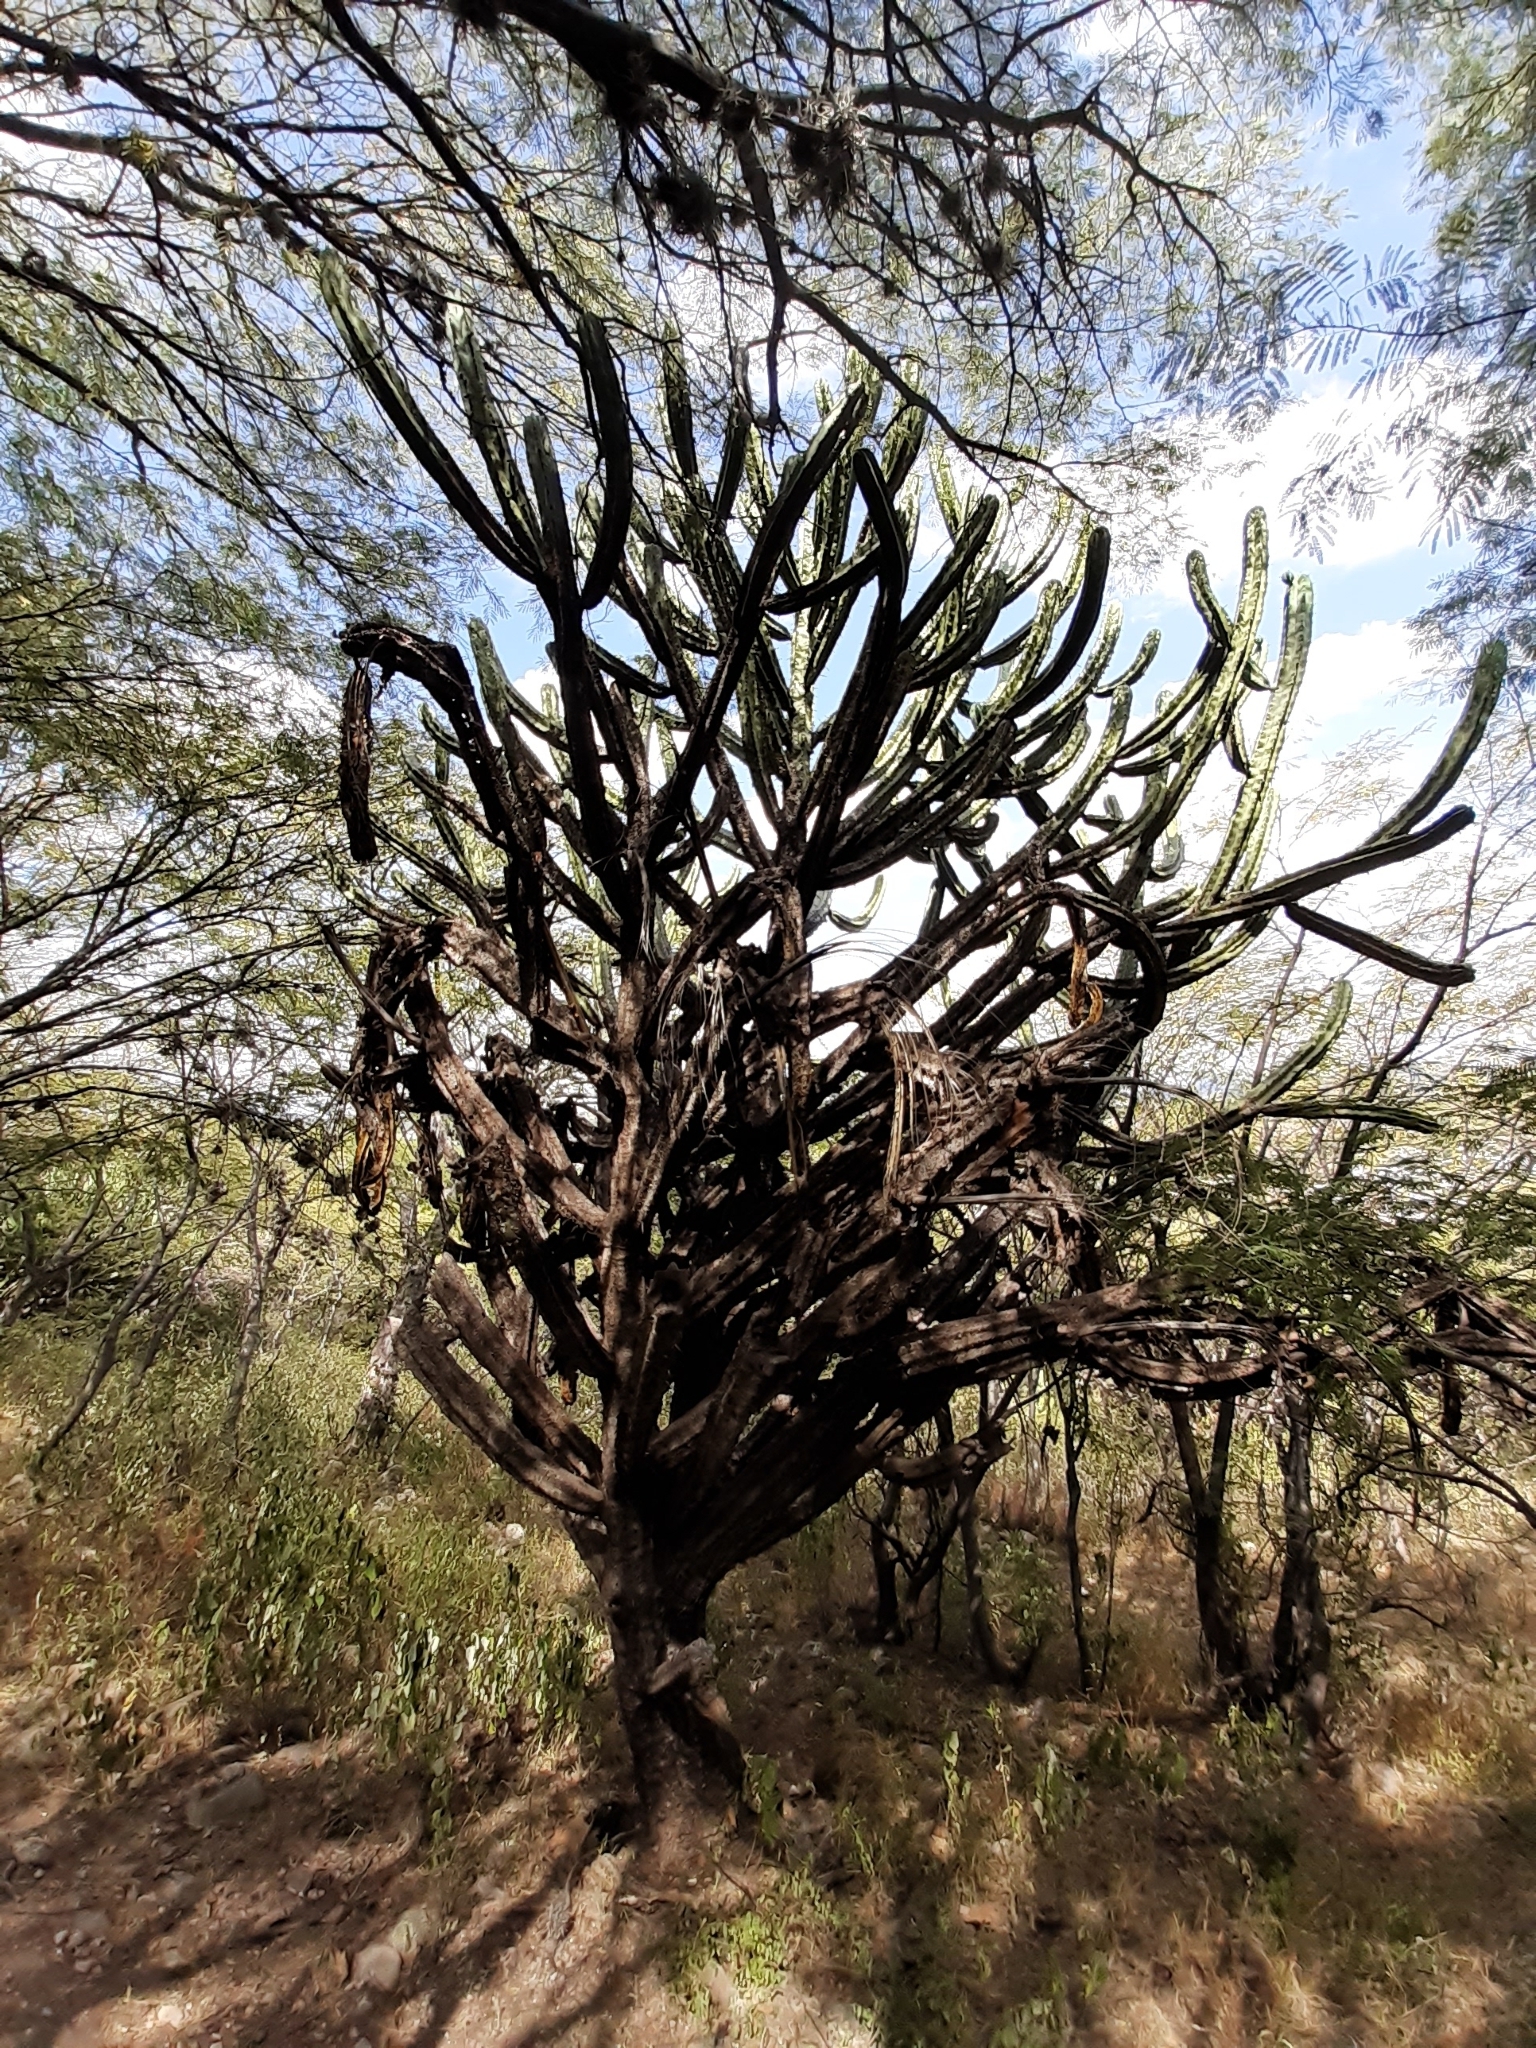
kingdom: Plantae
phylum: Tracheophyta
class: Magnoliopsida
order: Caryophyllales
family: Cactaceae
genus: Myrtillocactus
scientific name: Myrtillocactus geometrizans
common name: Bilberry cactus
